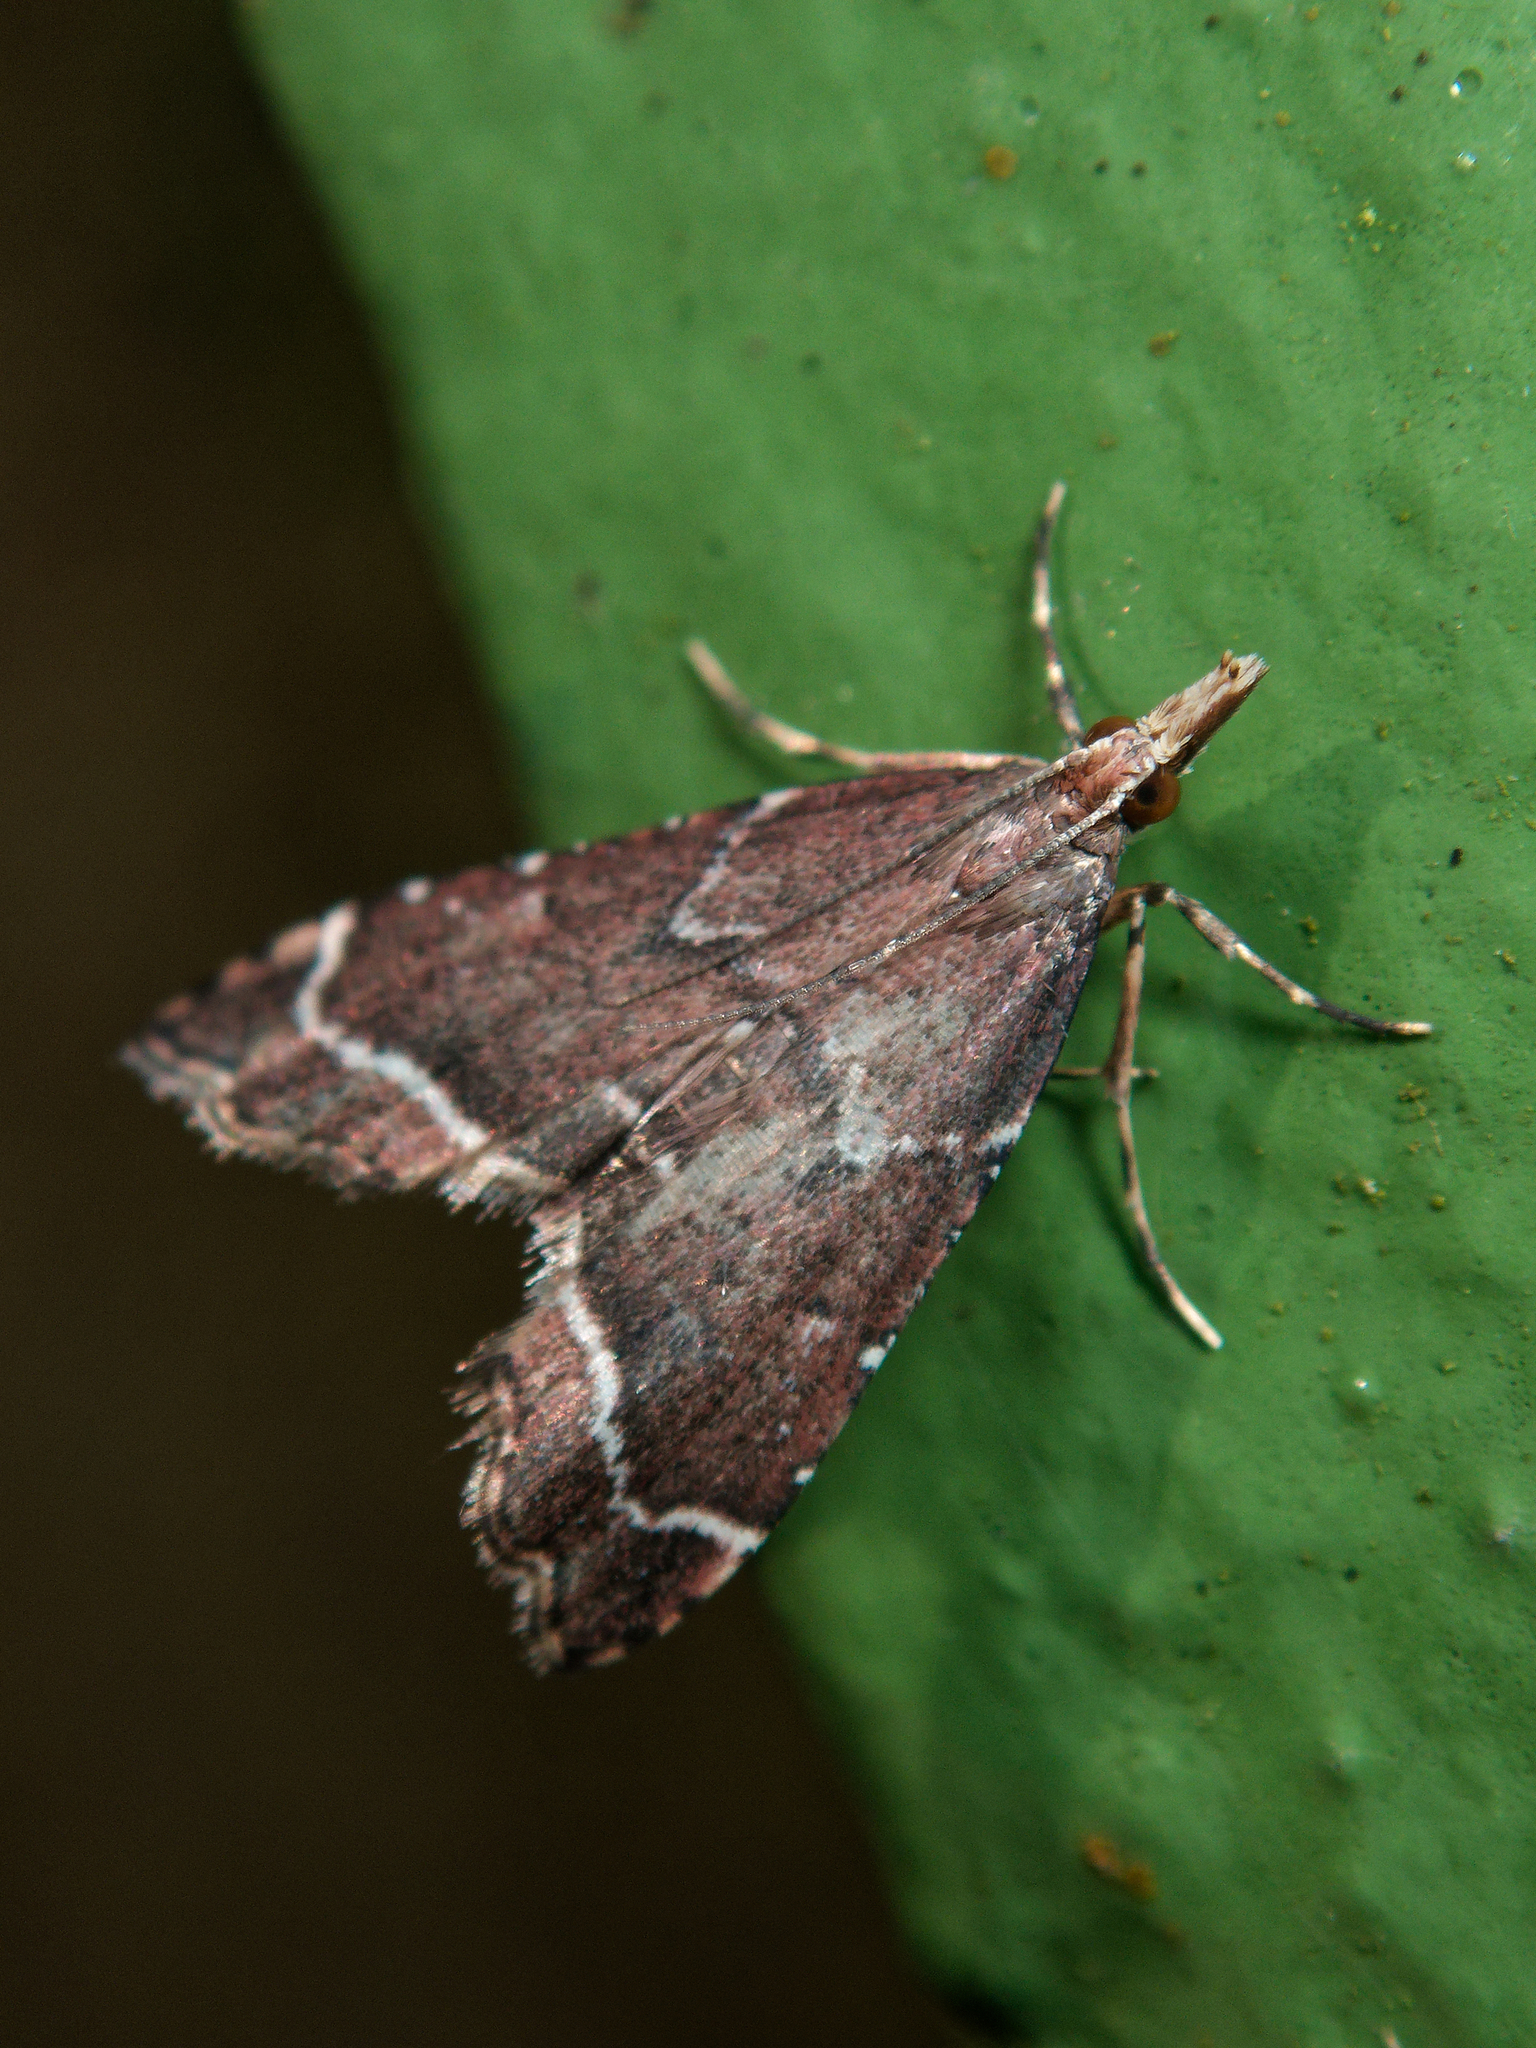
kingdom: Animalia
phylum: Arthropoda
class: Insecta
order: Lepidoptera
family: Crambidae
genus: Diplopseustis
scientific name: Diplopseustis perieresalis
